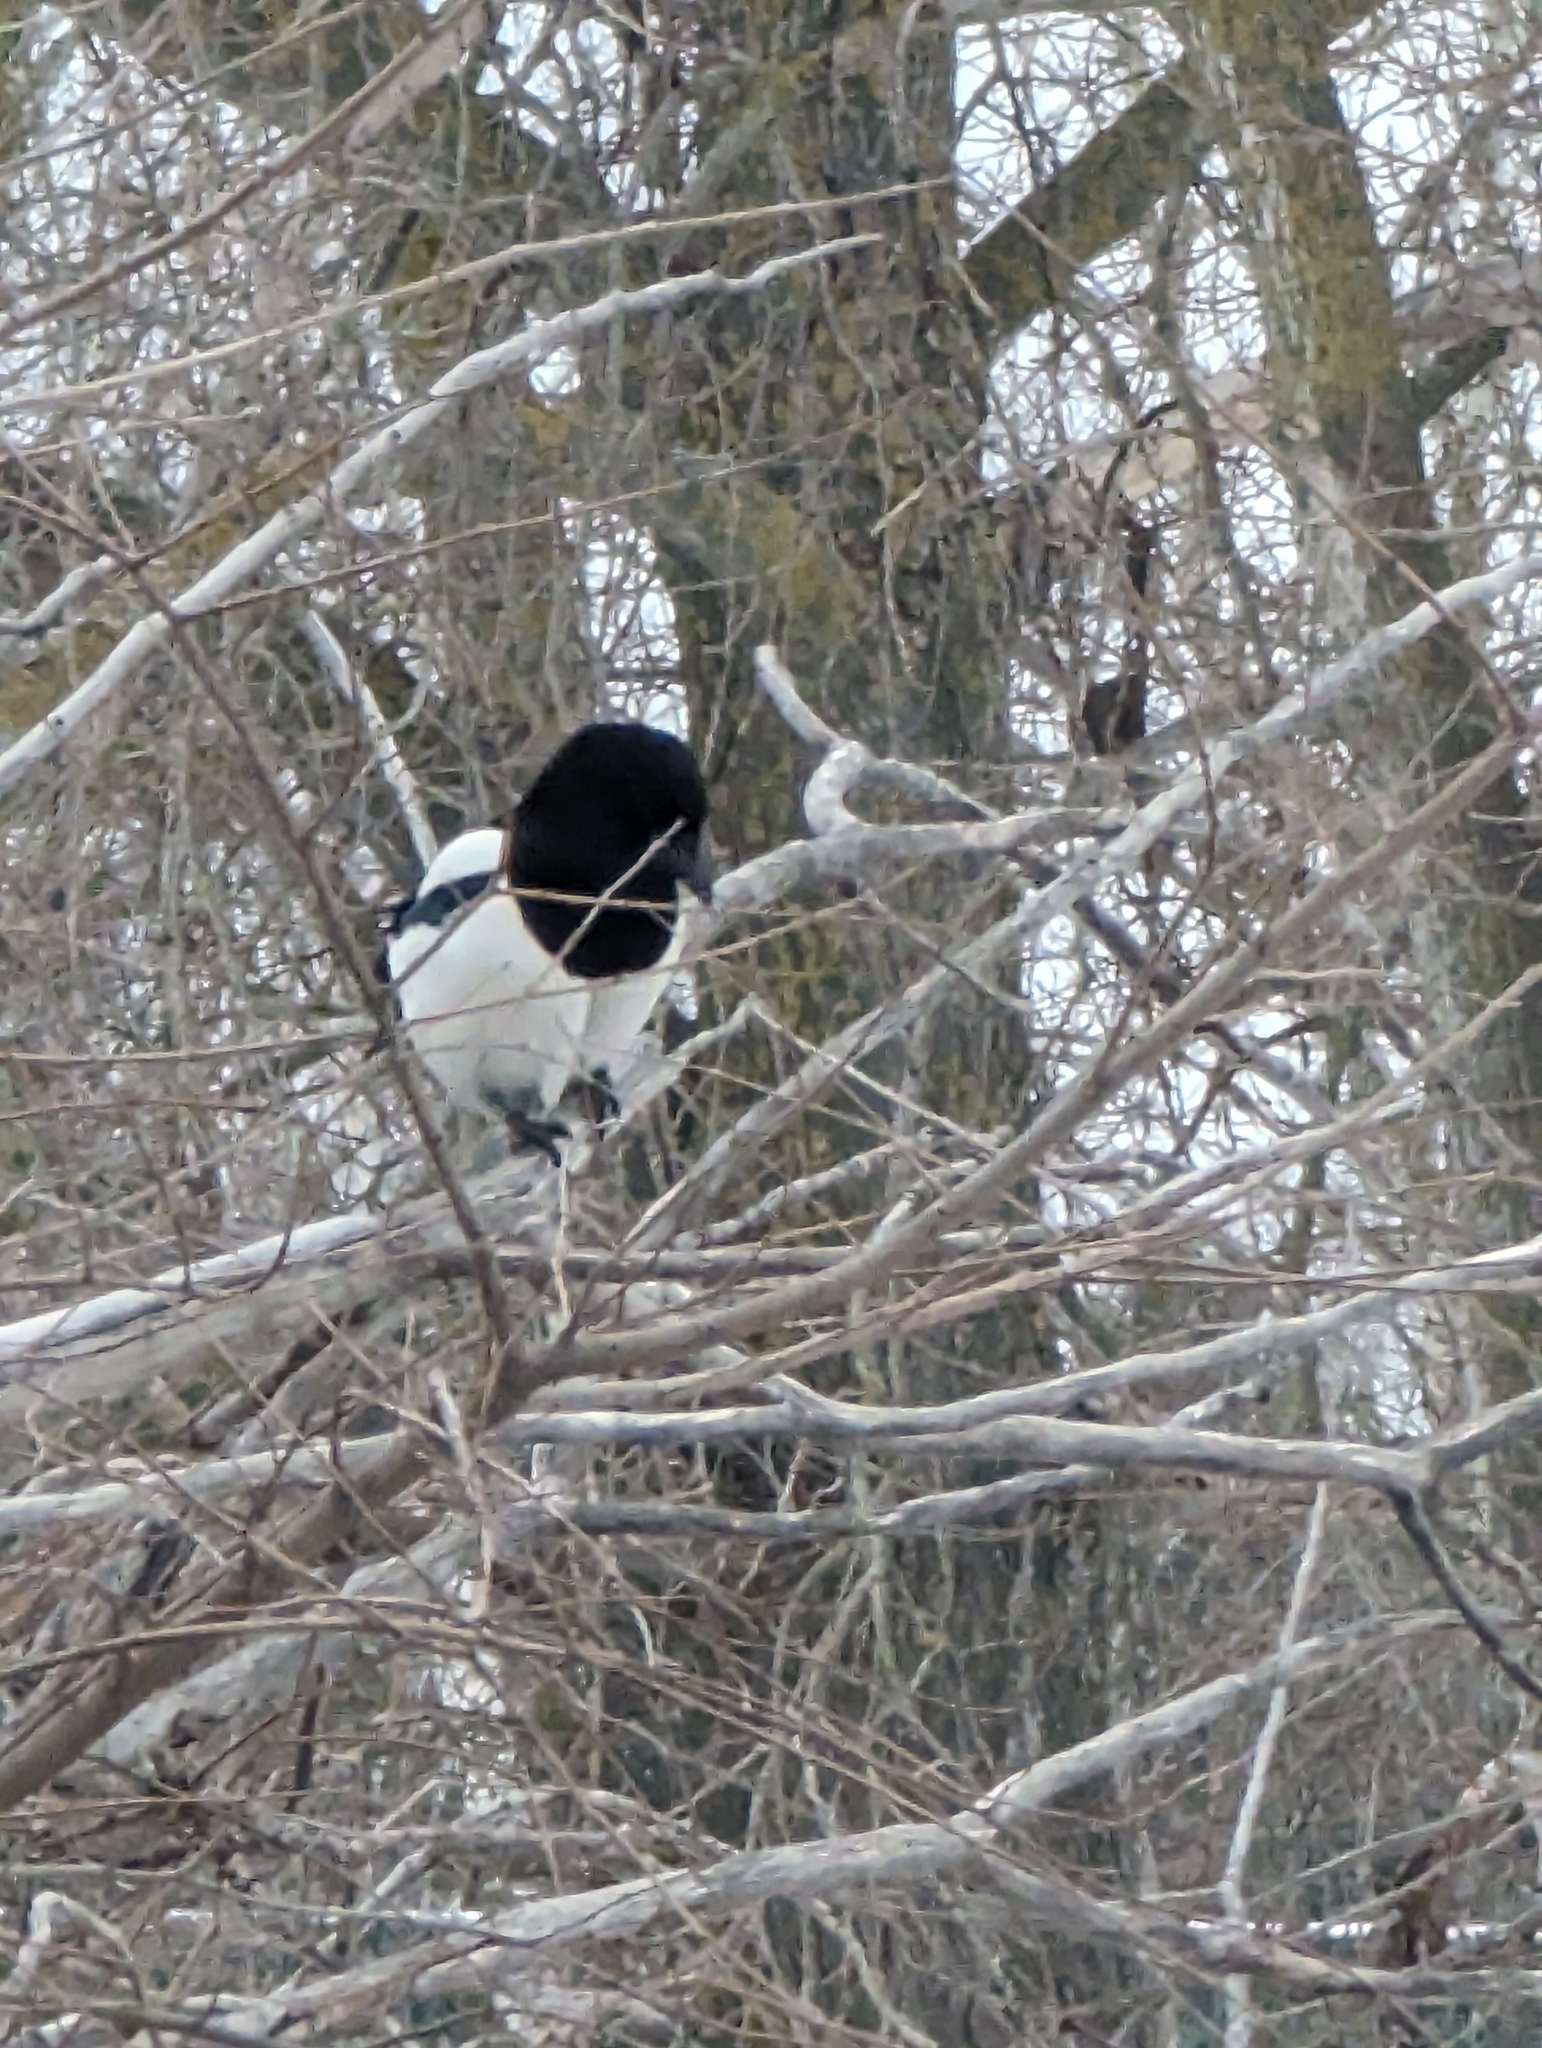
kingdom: Animalia
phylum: Chordata
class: Aves
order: Passeriformes
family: Corvidae
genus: Pica
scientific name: Pica pica
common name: Eurasian magpie
